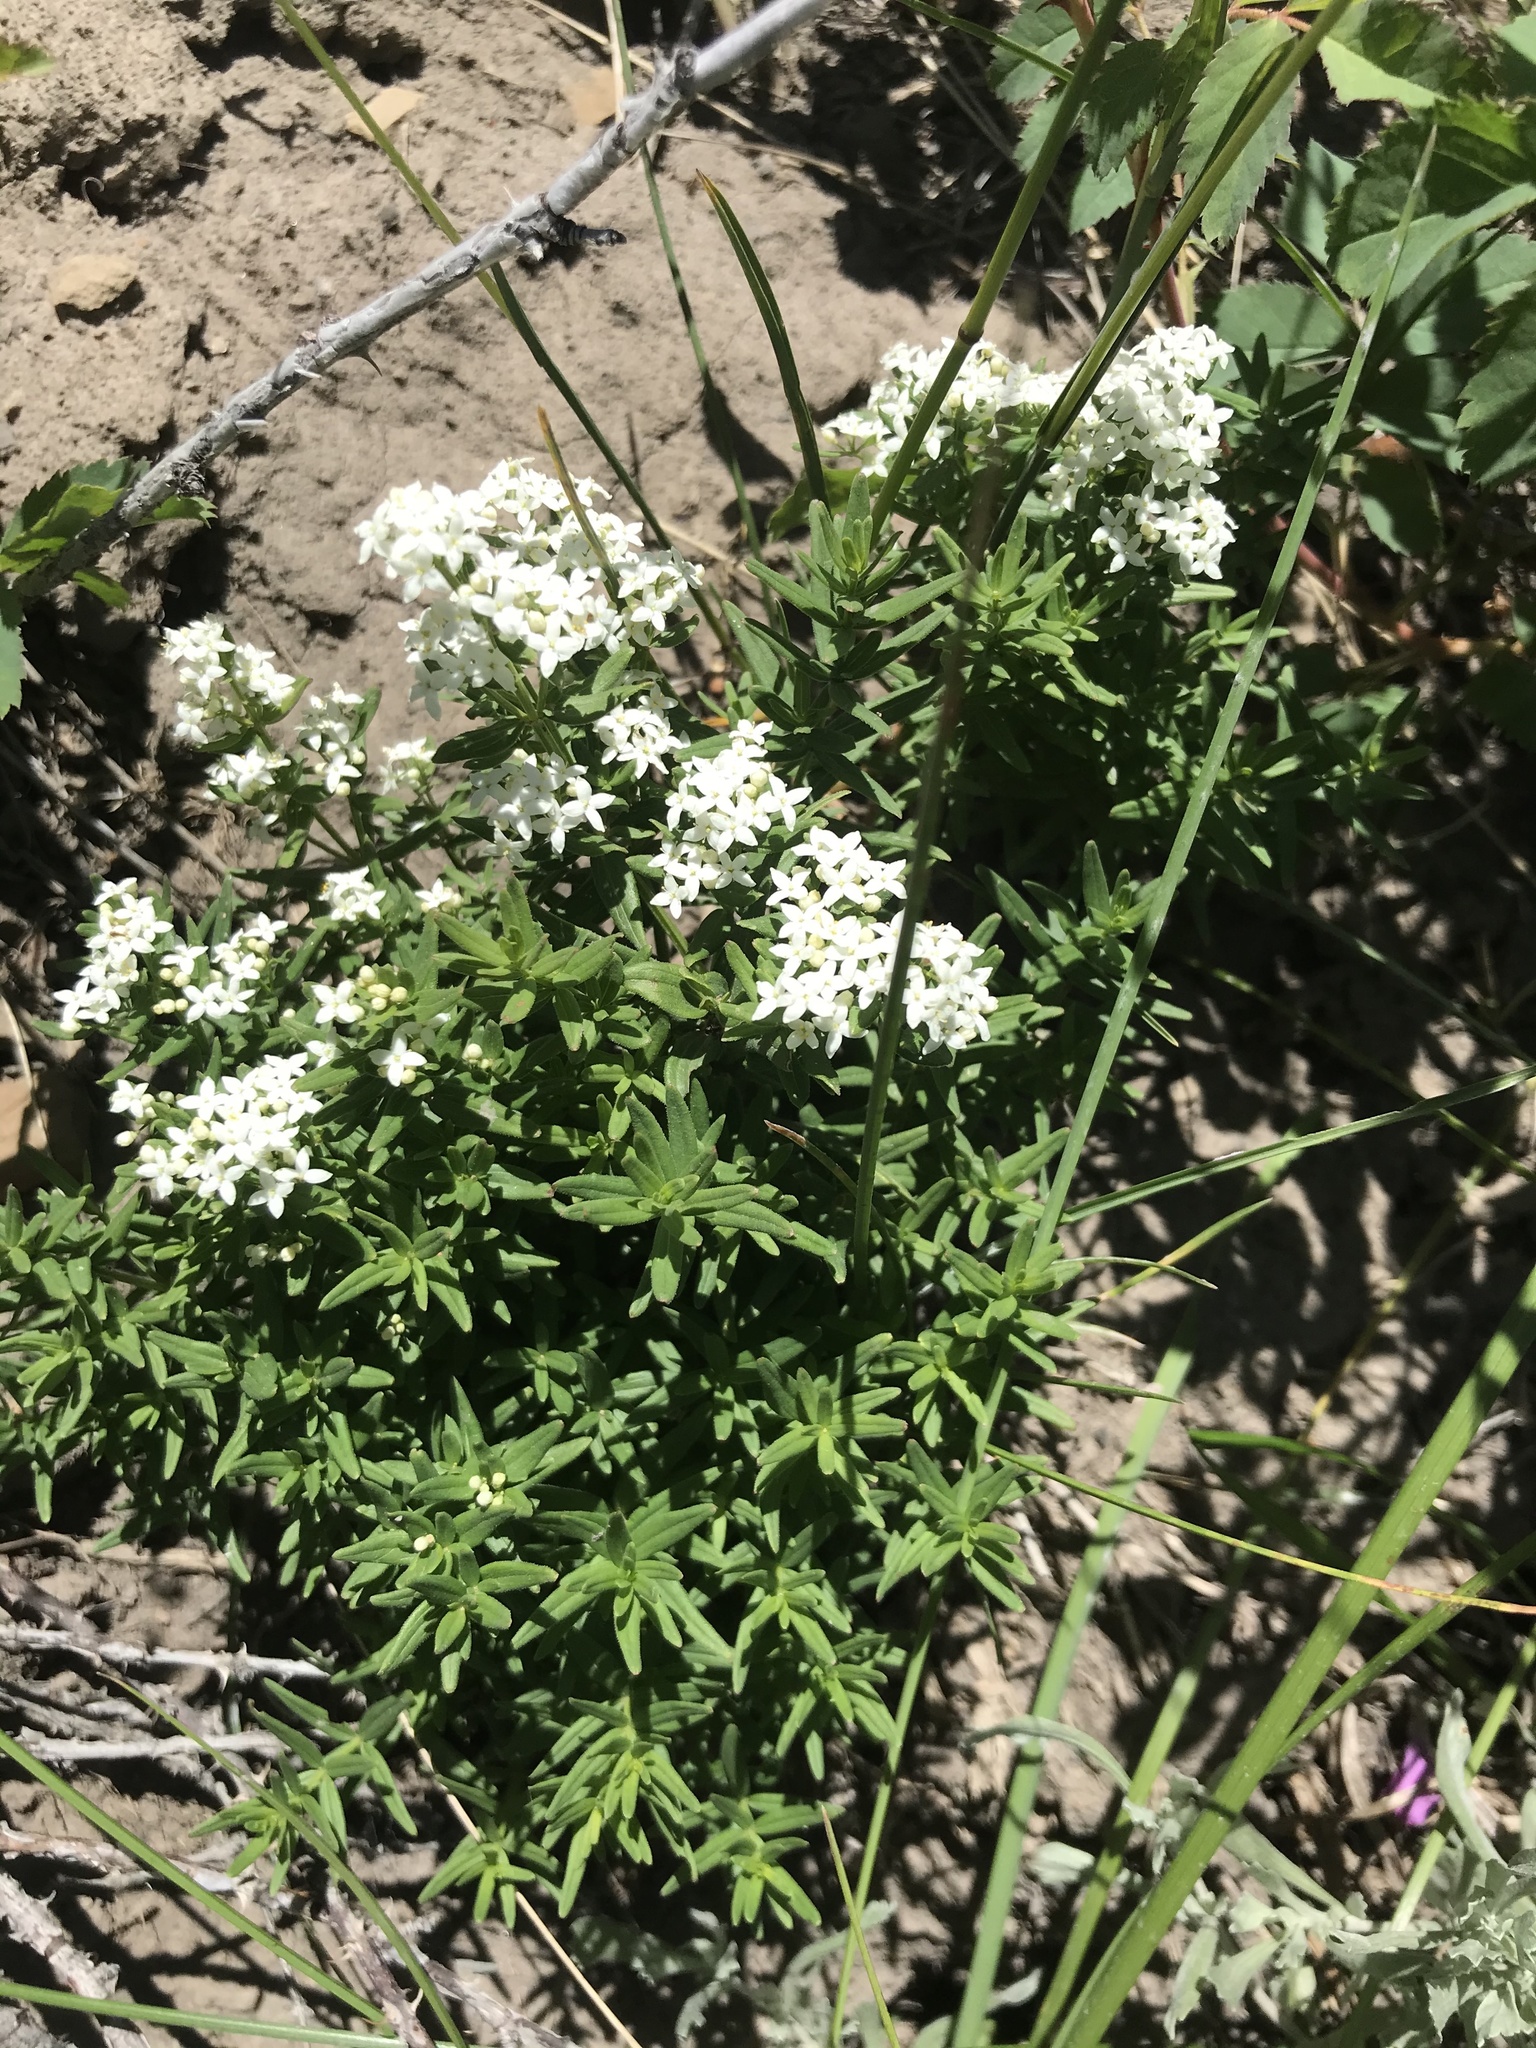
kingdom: Plantae
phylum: Tracheophyta
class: Magnoliopsida
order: Gentianales
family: Rubiaceae
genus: Galium
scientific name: Galium boreale
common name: Northern bedstraw
